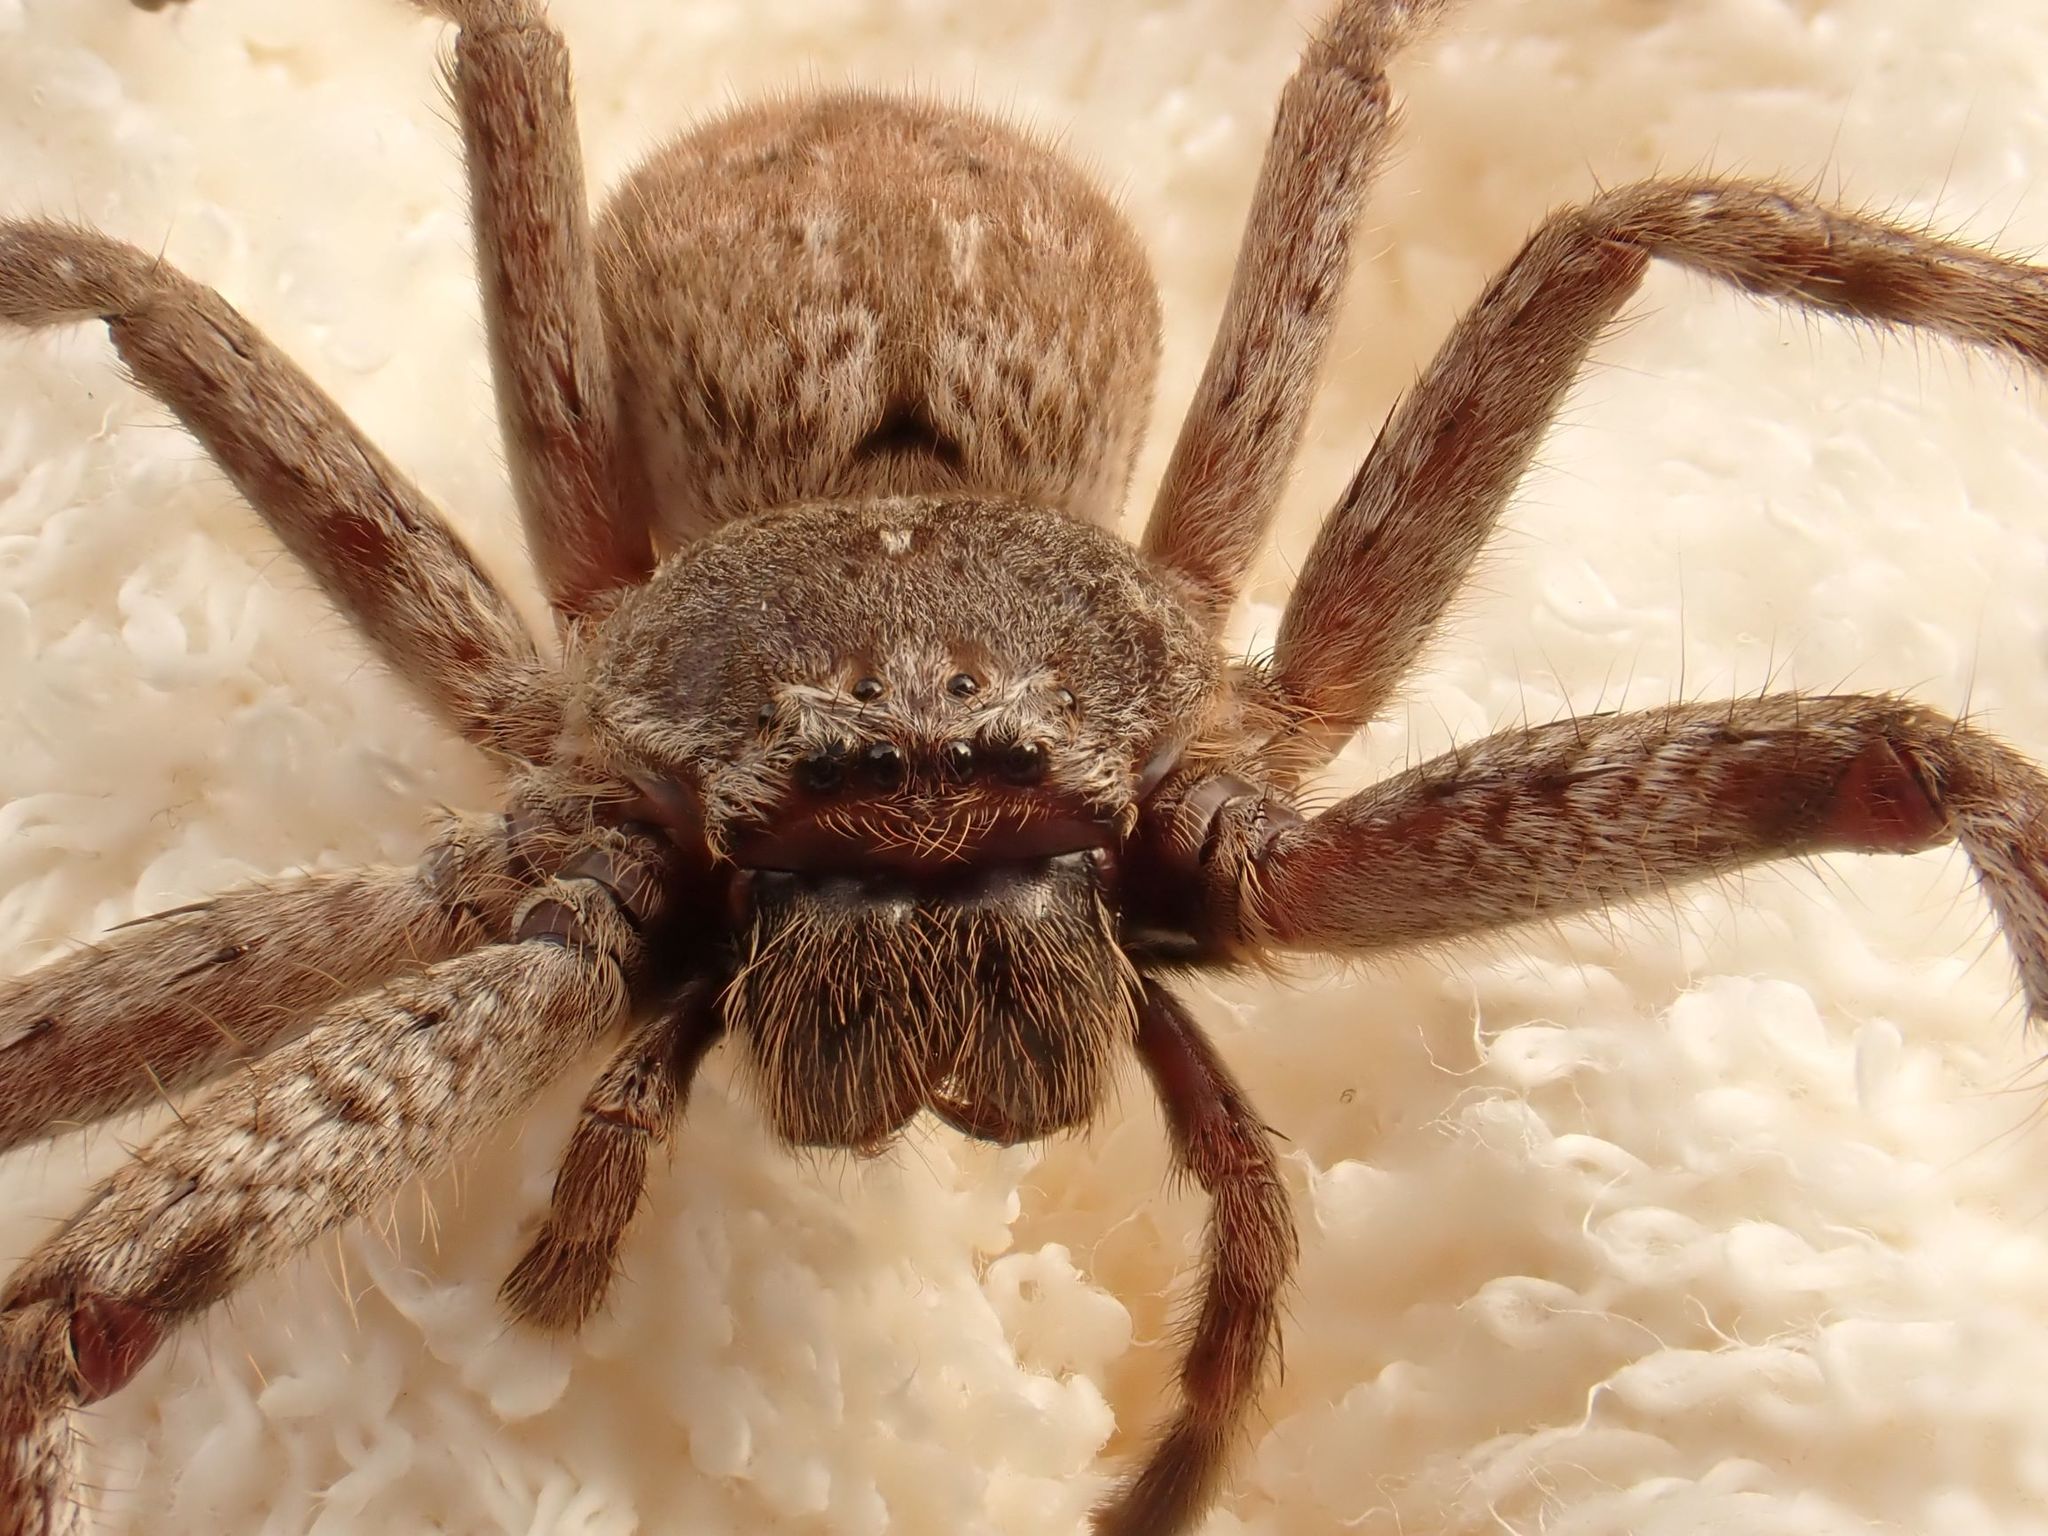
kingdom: Animalia
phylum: Arthropoda
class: Arachnida
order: Araneae
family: Sparassidae
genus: Isopedella
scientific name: Isopedella victorialis
